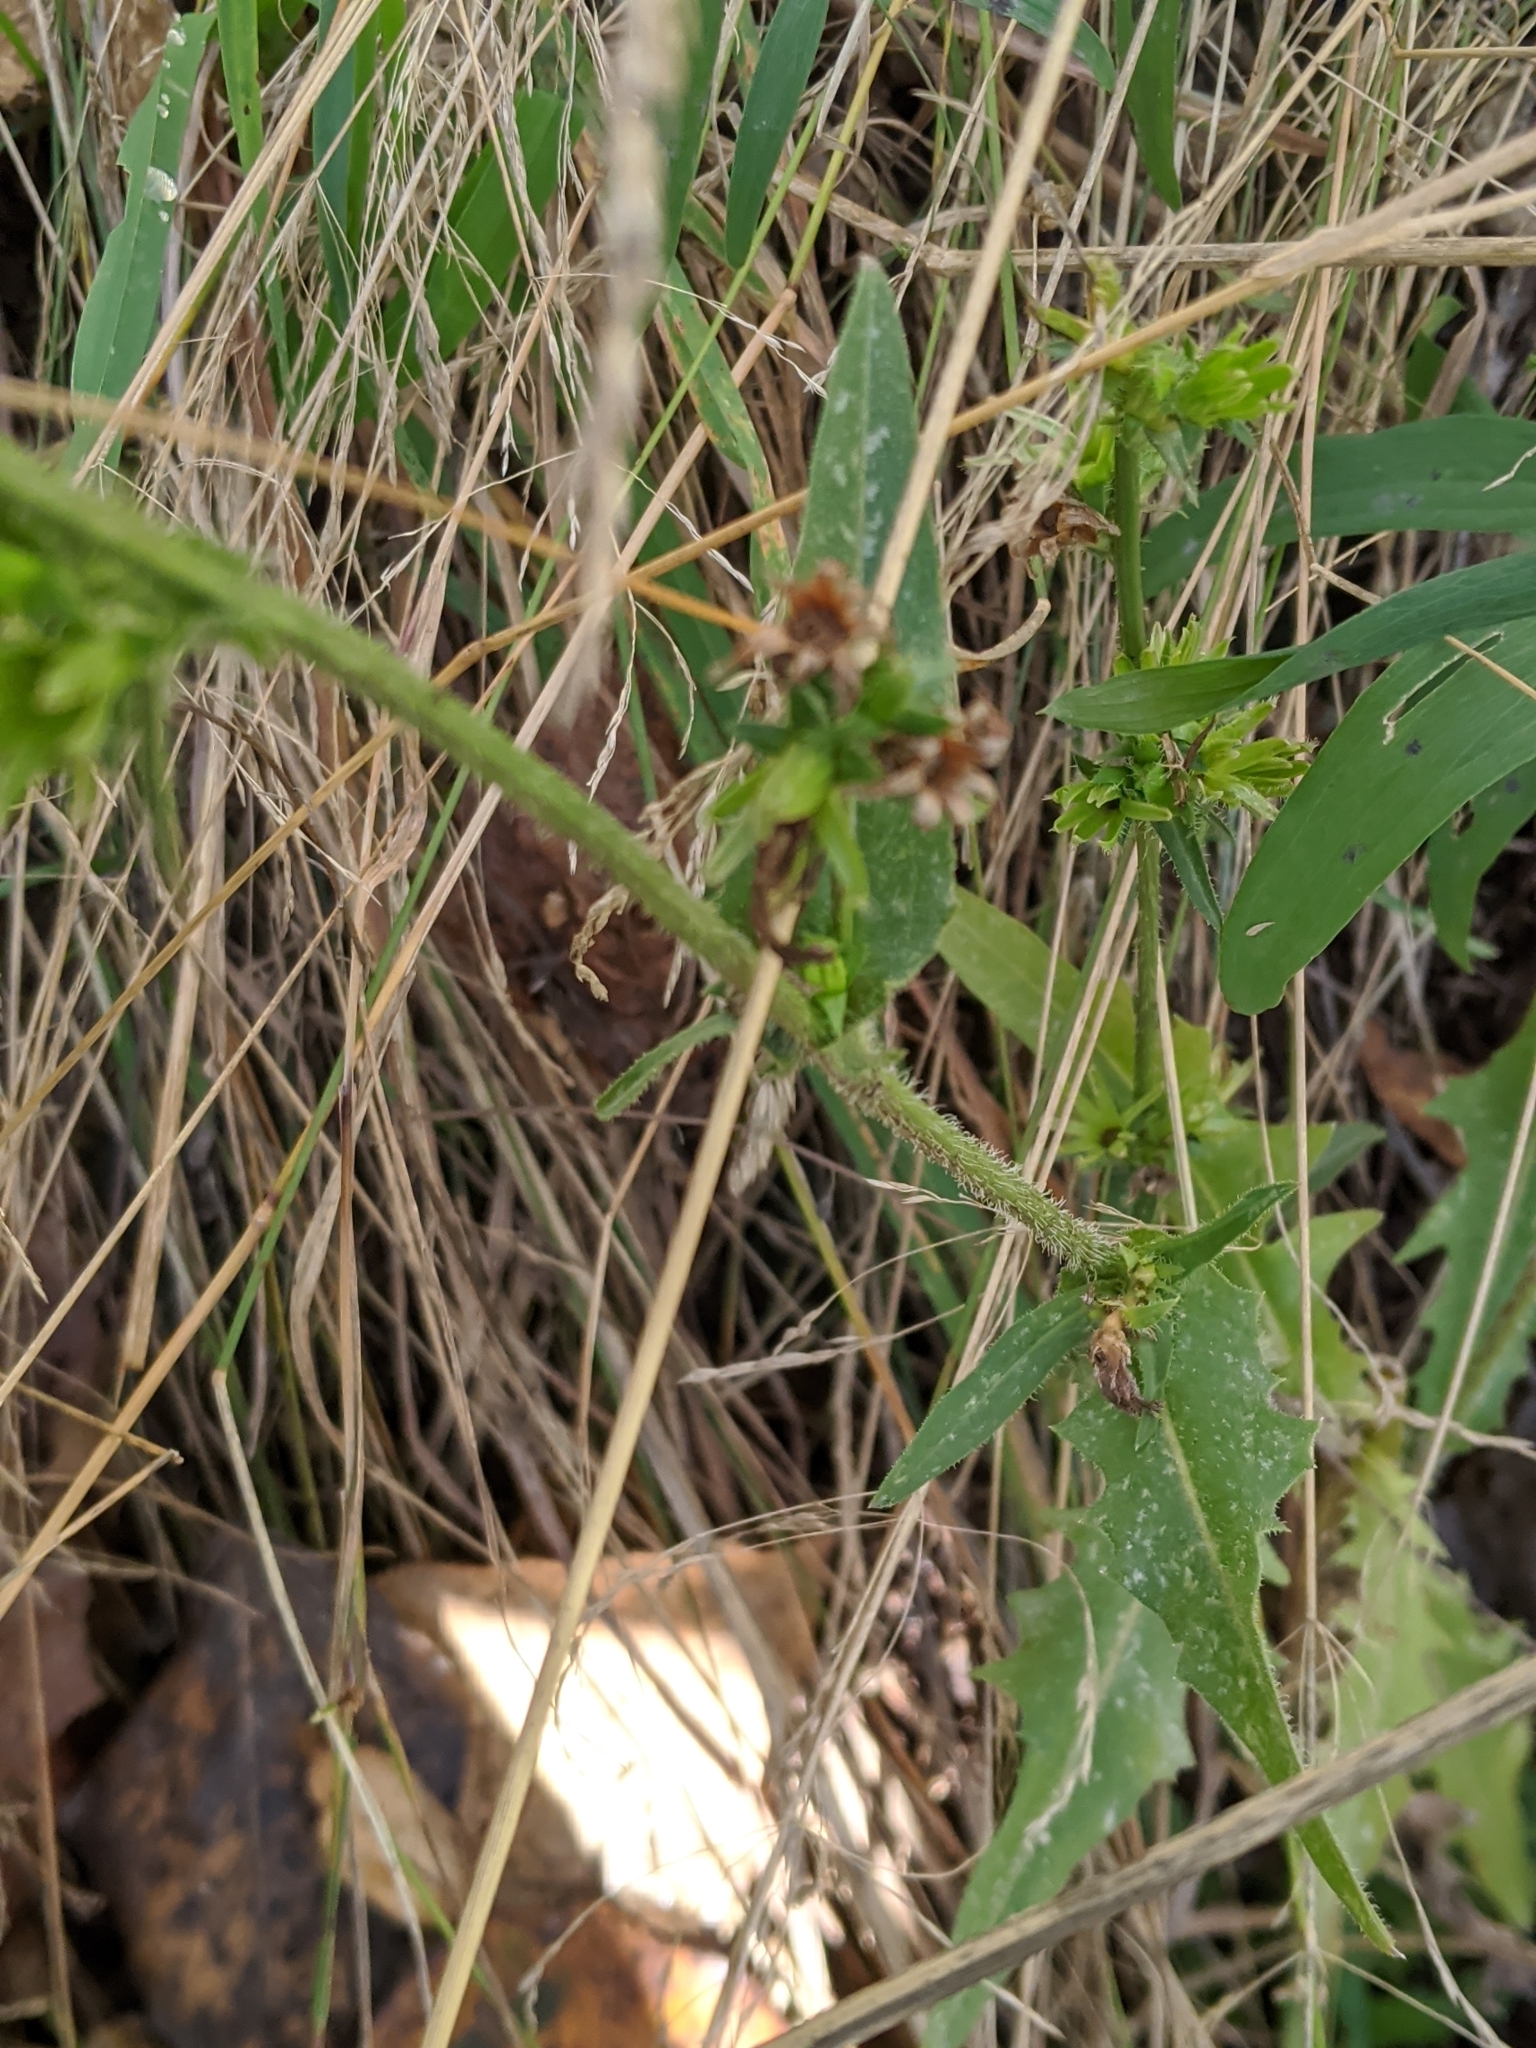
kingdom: Plantae
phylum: Tracheophyta
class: Magnoliopsida
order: Asterales
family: Asteraceae
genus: Cichorium
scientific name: Cichorium intybus
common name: Chicory
